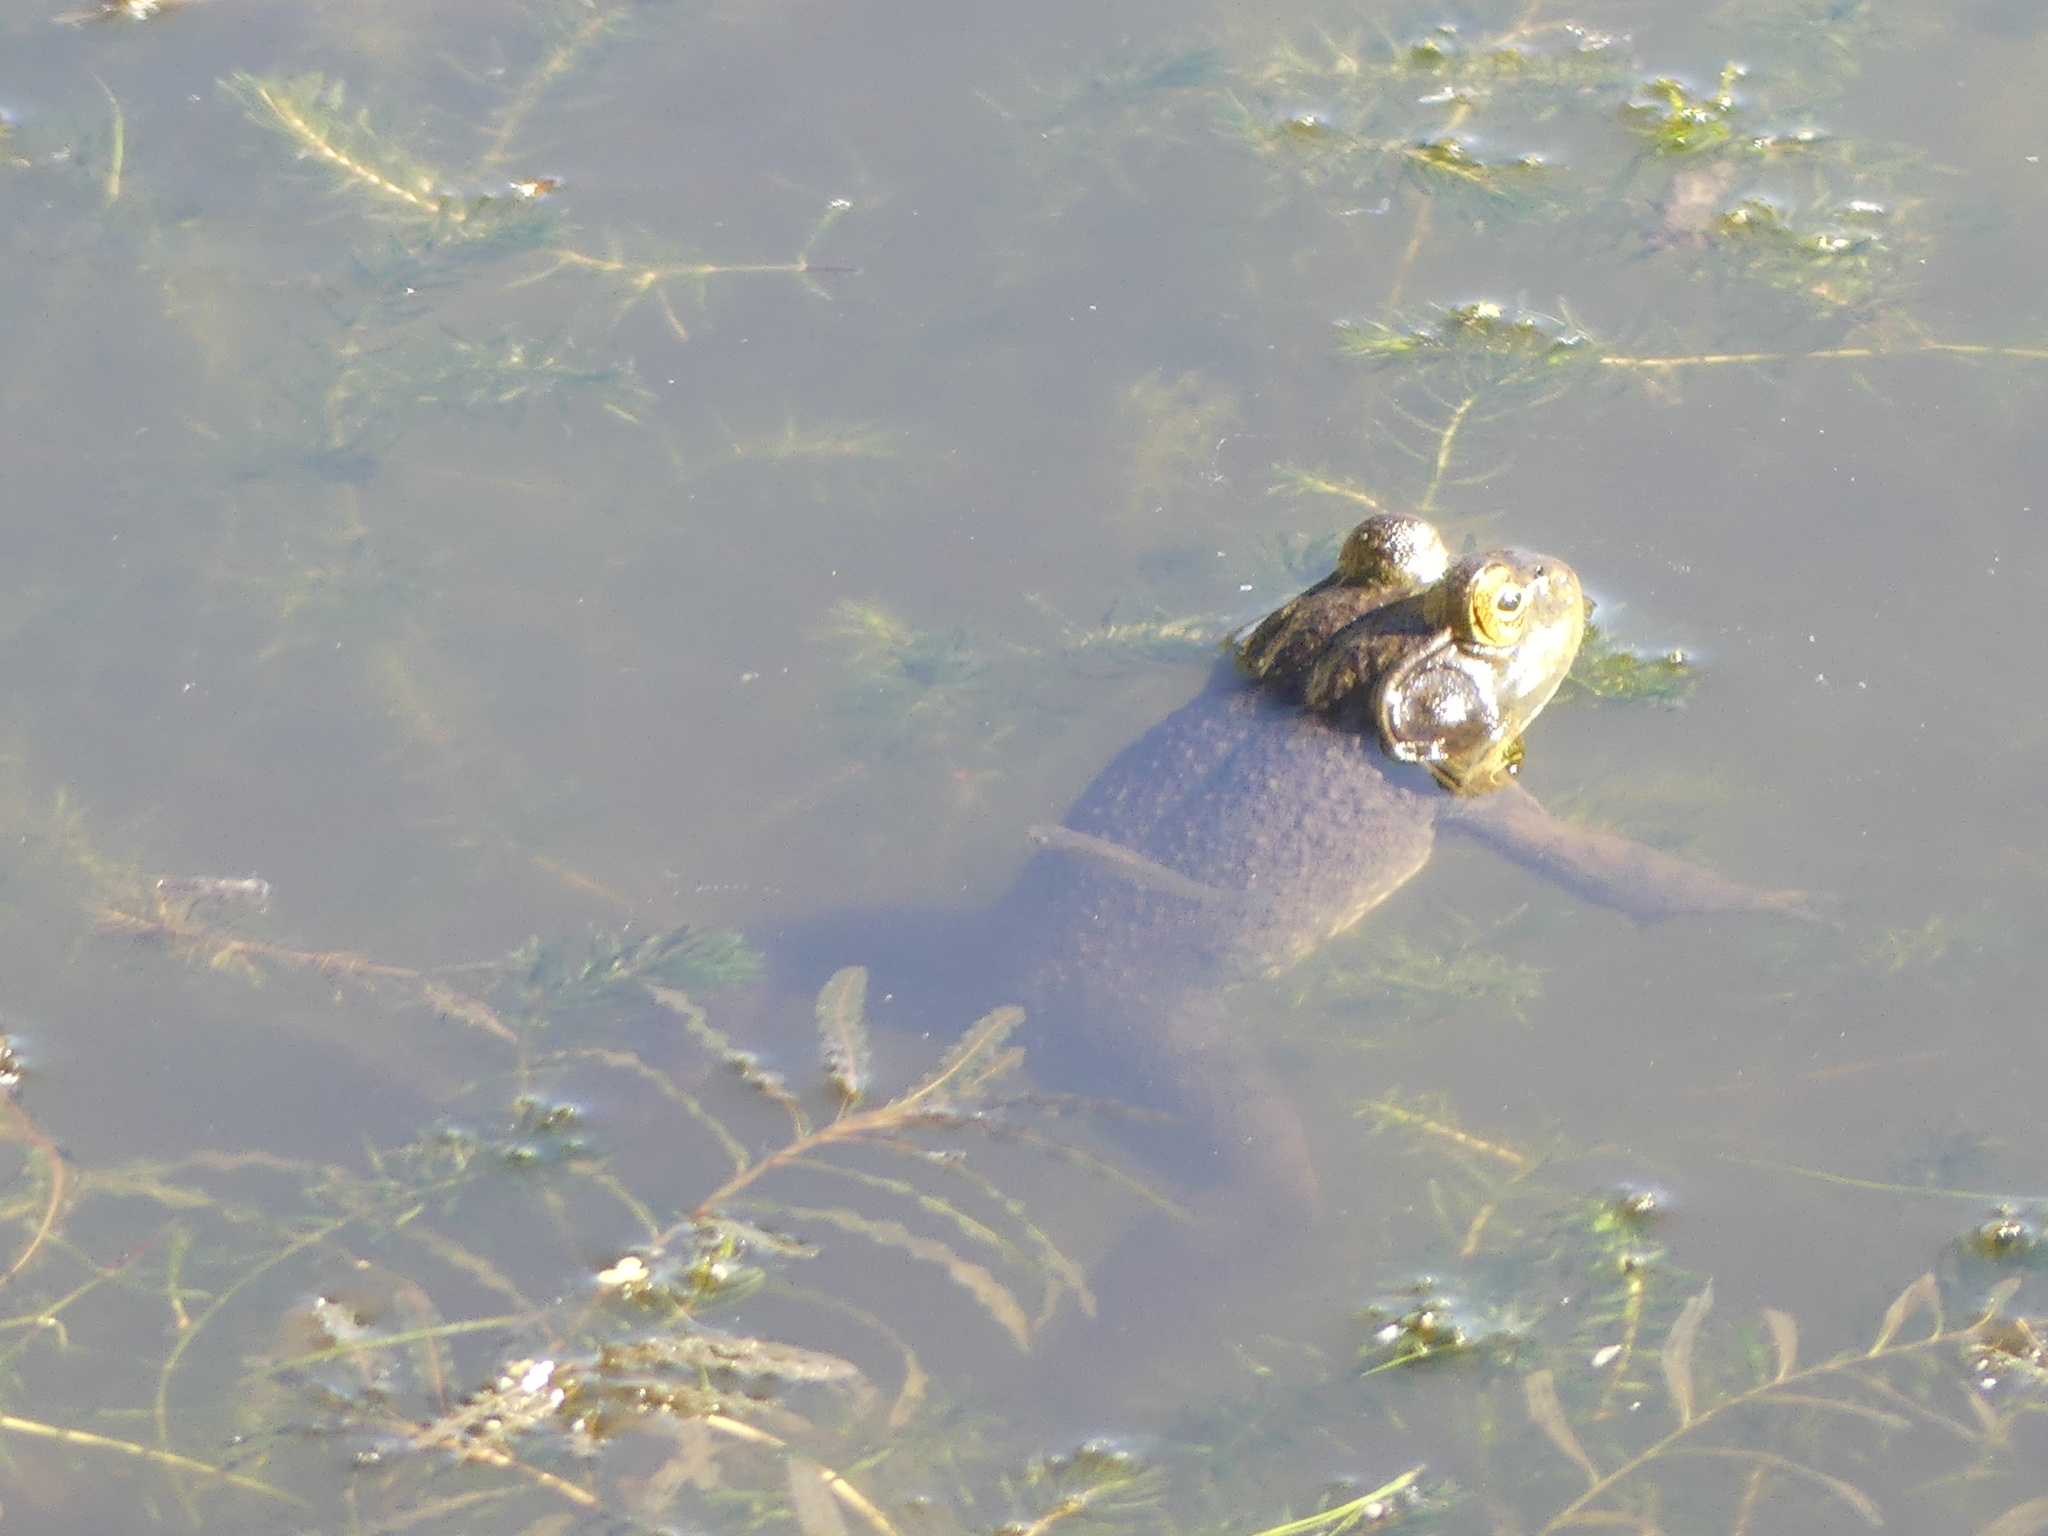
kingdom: Animalia
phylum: Chordata
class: Amphibia
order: Anura
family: Ranidae
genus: Lithobates
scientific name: Lithobates catesbeianus
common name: American bullfrog
